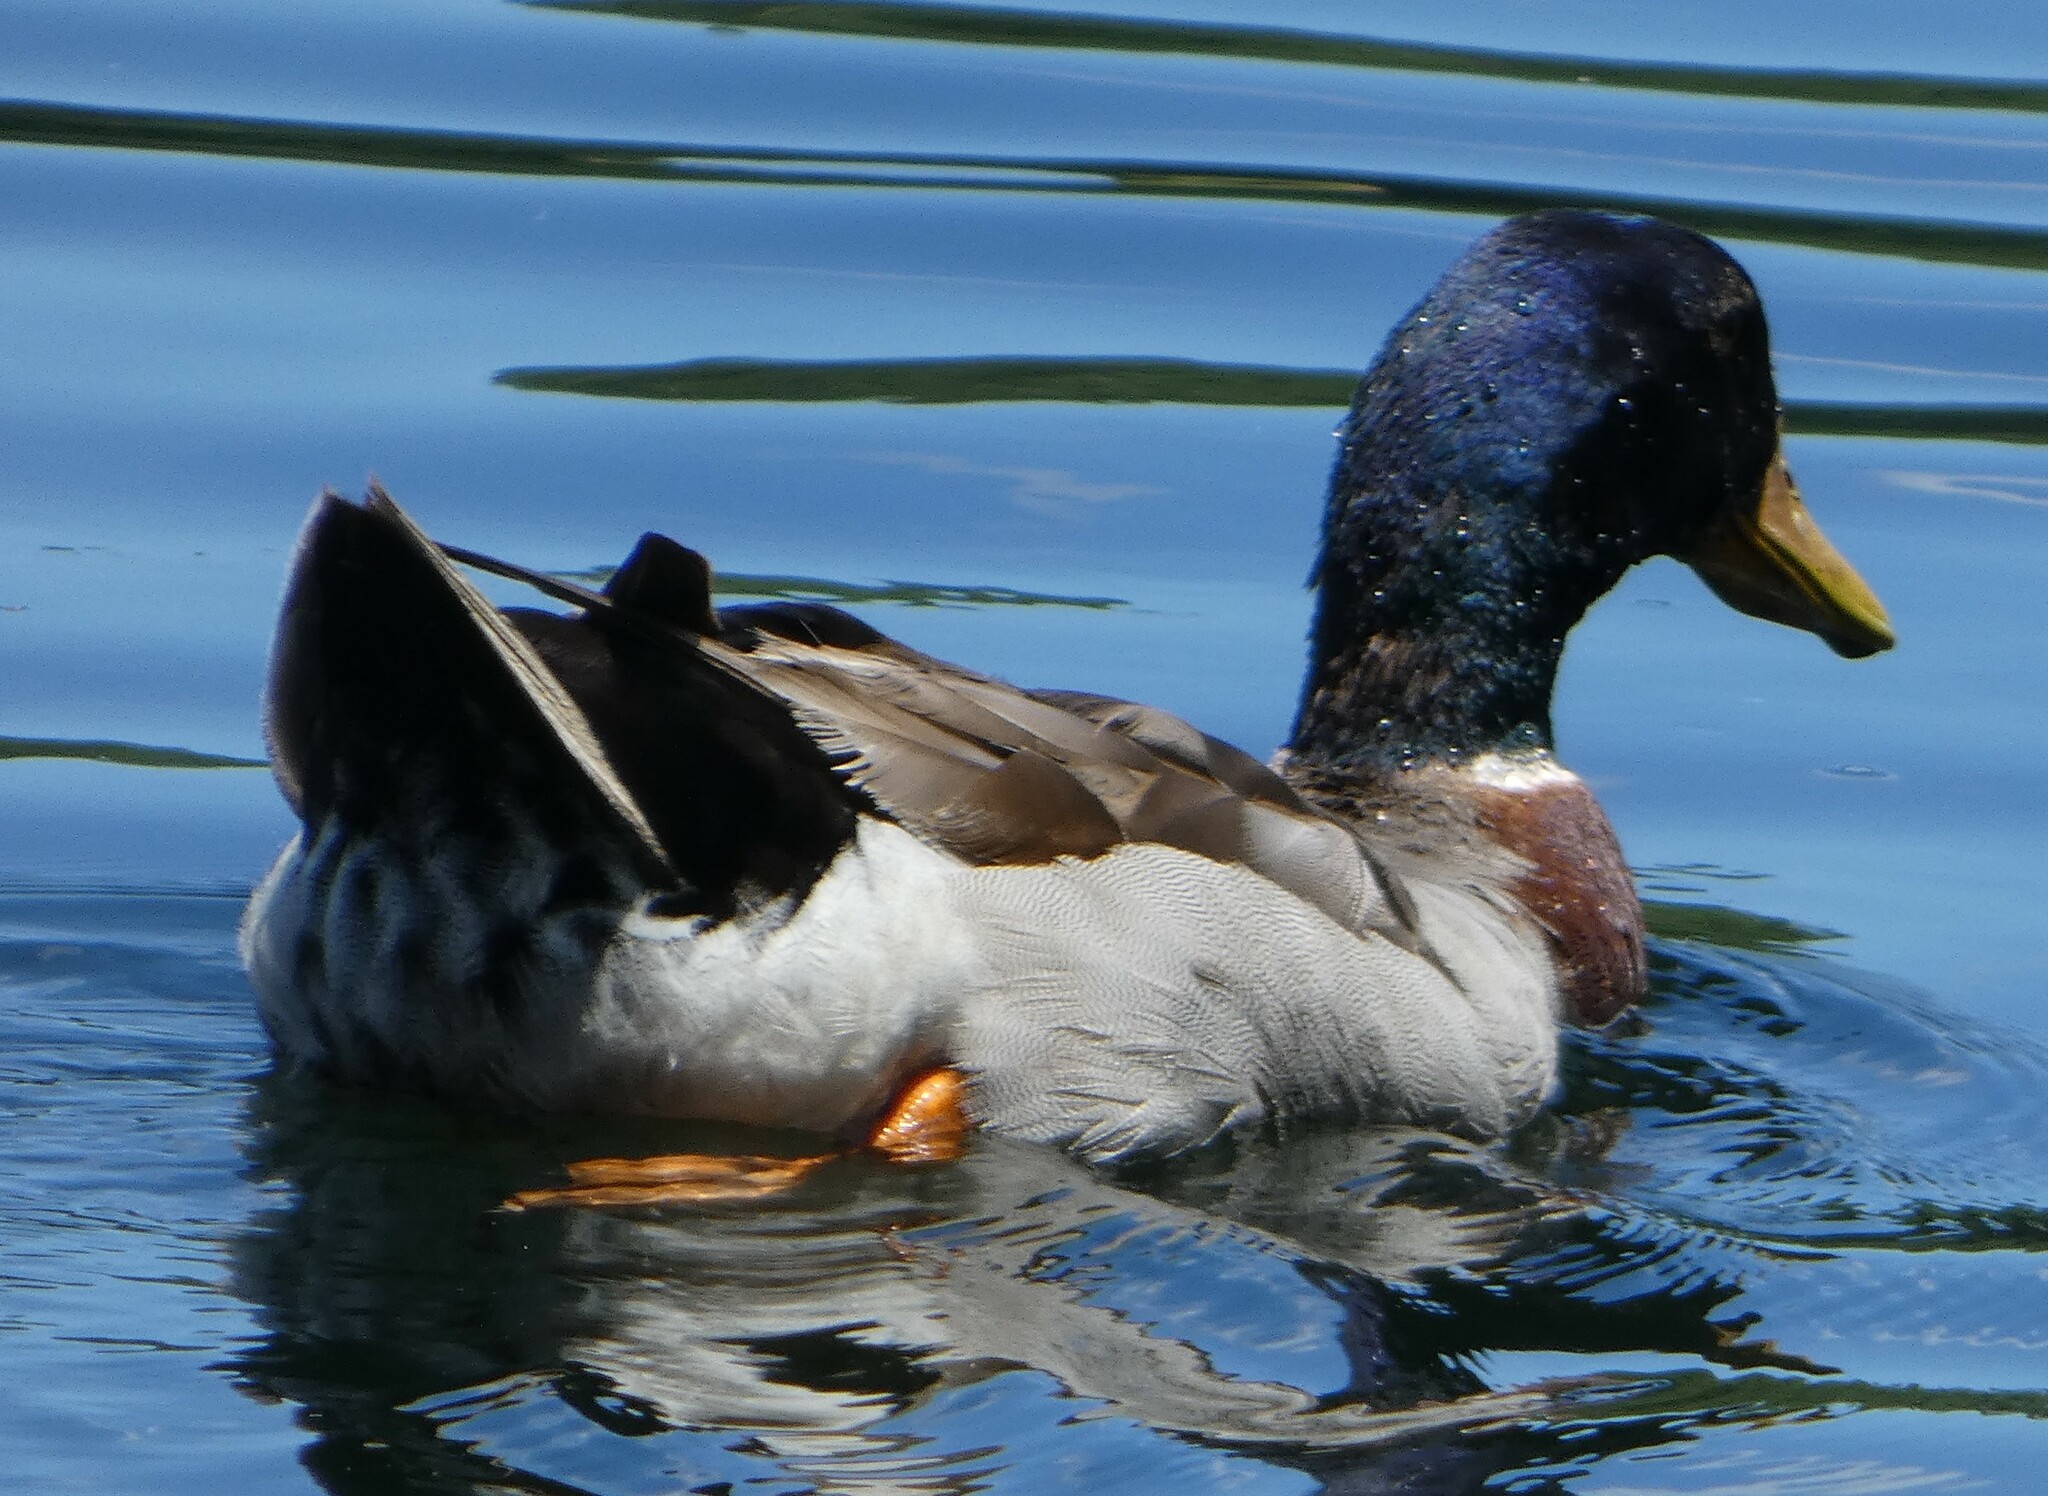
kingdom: Animalia
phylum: Chordata
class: Aves
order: Anseriformes
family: Anatidae
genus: Anas
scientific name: Anas platyrhynchos
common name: Mallard
